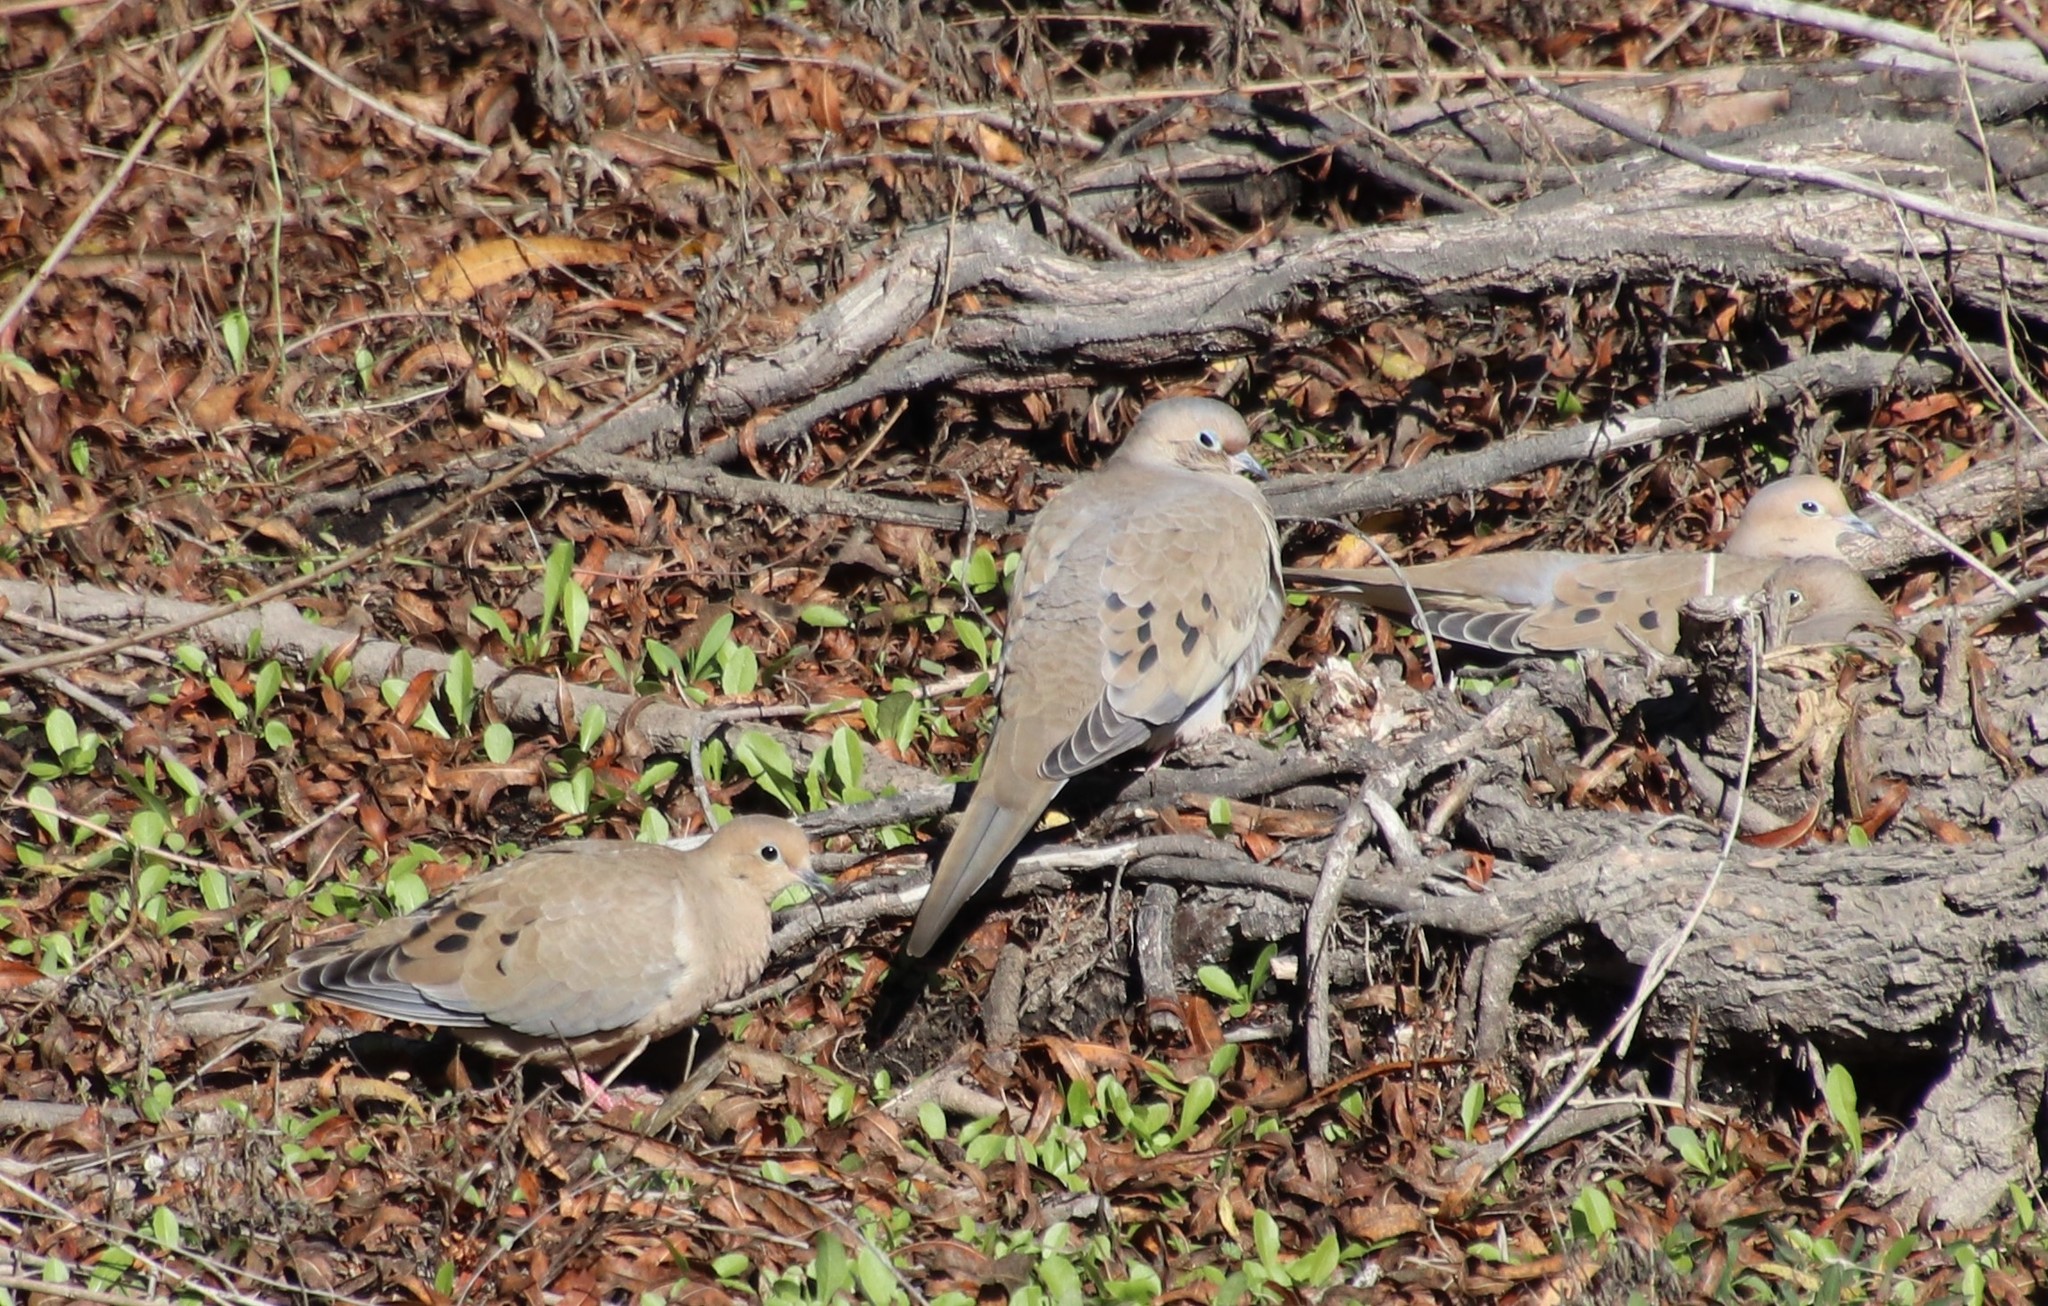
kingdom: Animalia
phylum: Chordata
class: Aves
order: Columbiformes
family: Columbidae
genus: Zenaida
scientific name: Zenaida macroura
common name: Mourning dove
